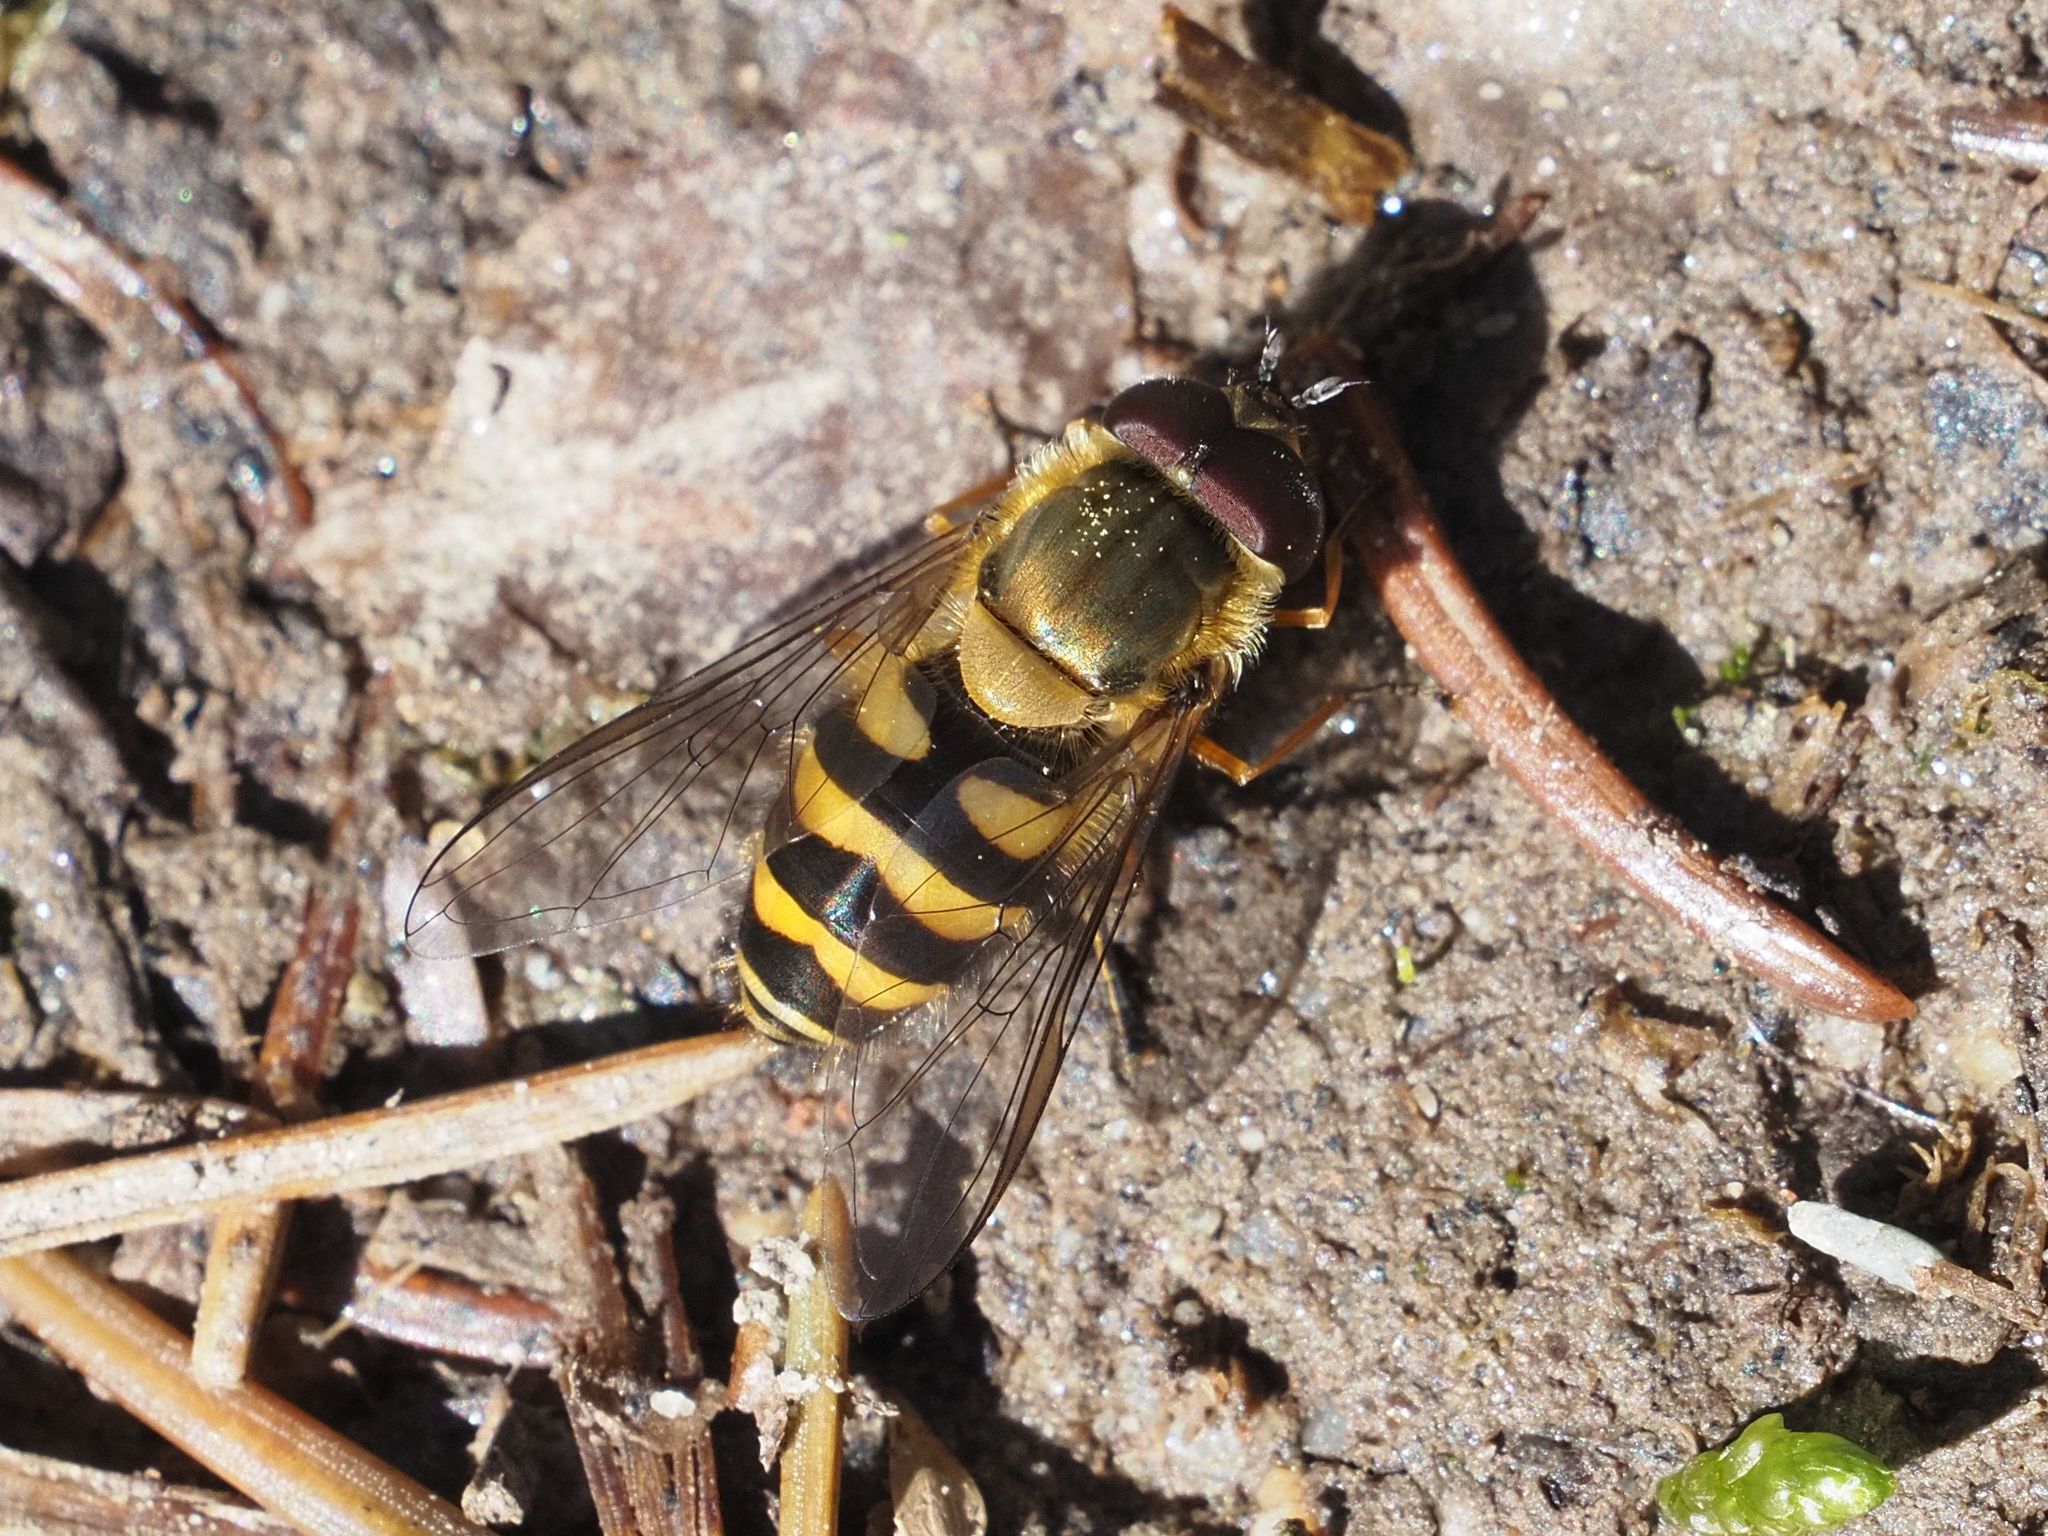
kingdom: Animalia
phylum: Arthropoda
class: Insecta
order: Diptera
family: Syrphidae
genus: Syrphus
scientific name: Syrphus torvus
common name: Hairy-eyed flower fly
